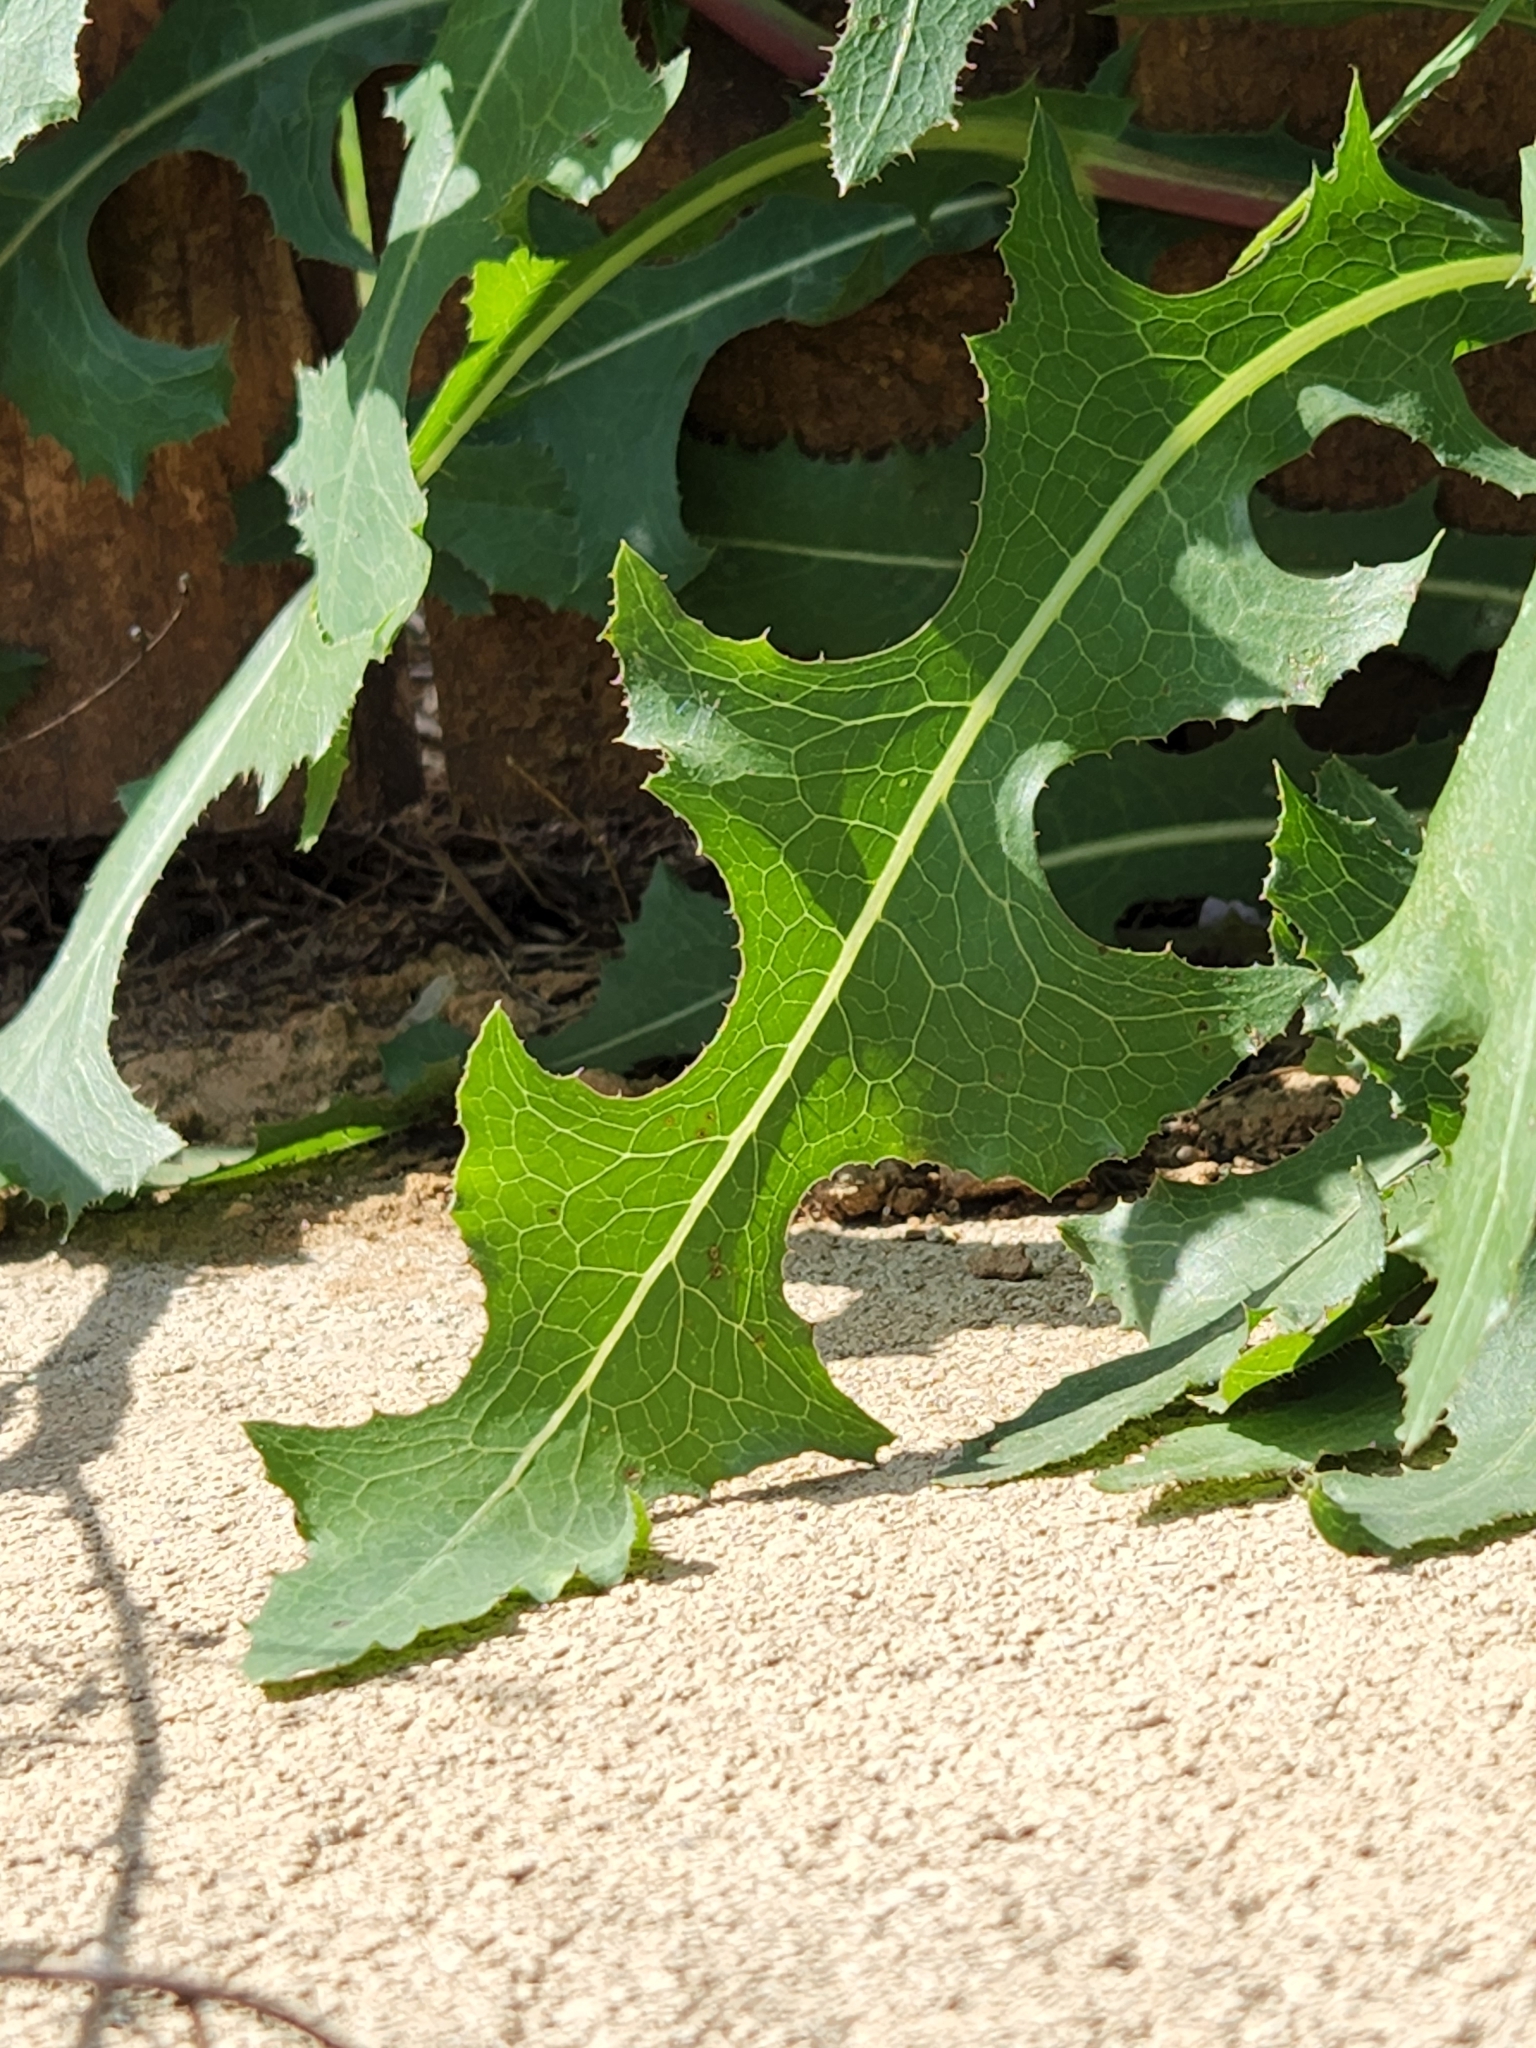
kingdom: Plantae
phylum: Tracheophyta
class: Magnoliopsida
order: Asterales
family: Asteraceae
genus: Lactuca
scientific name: Lactuca serriola
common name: Prickly lettuce
